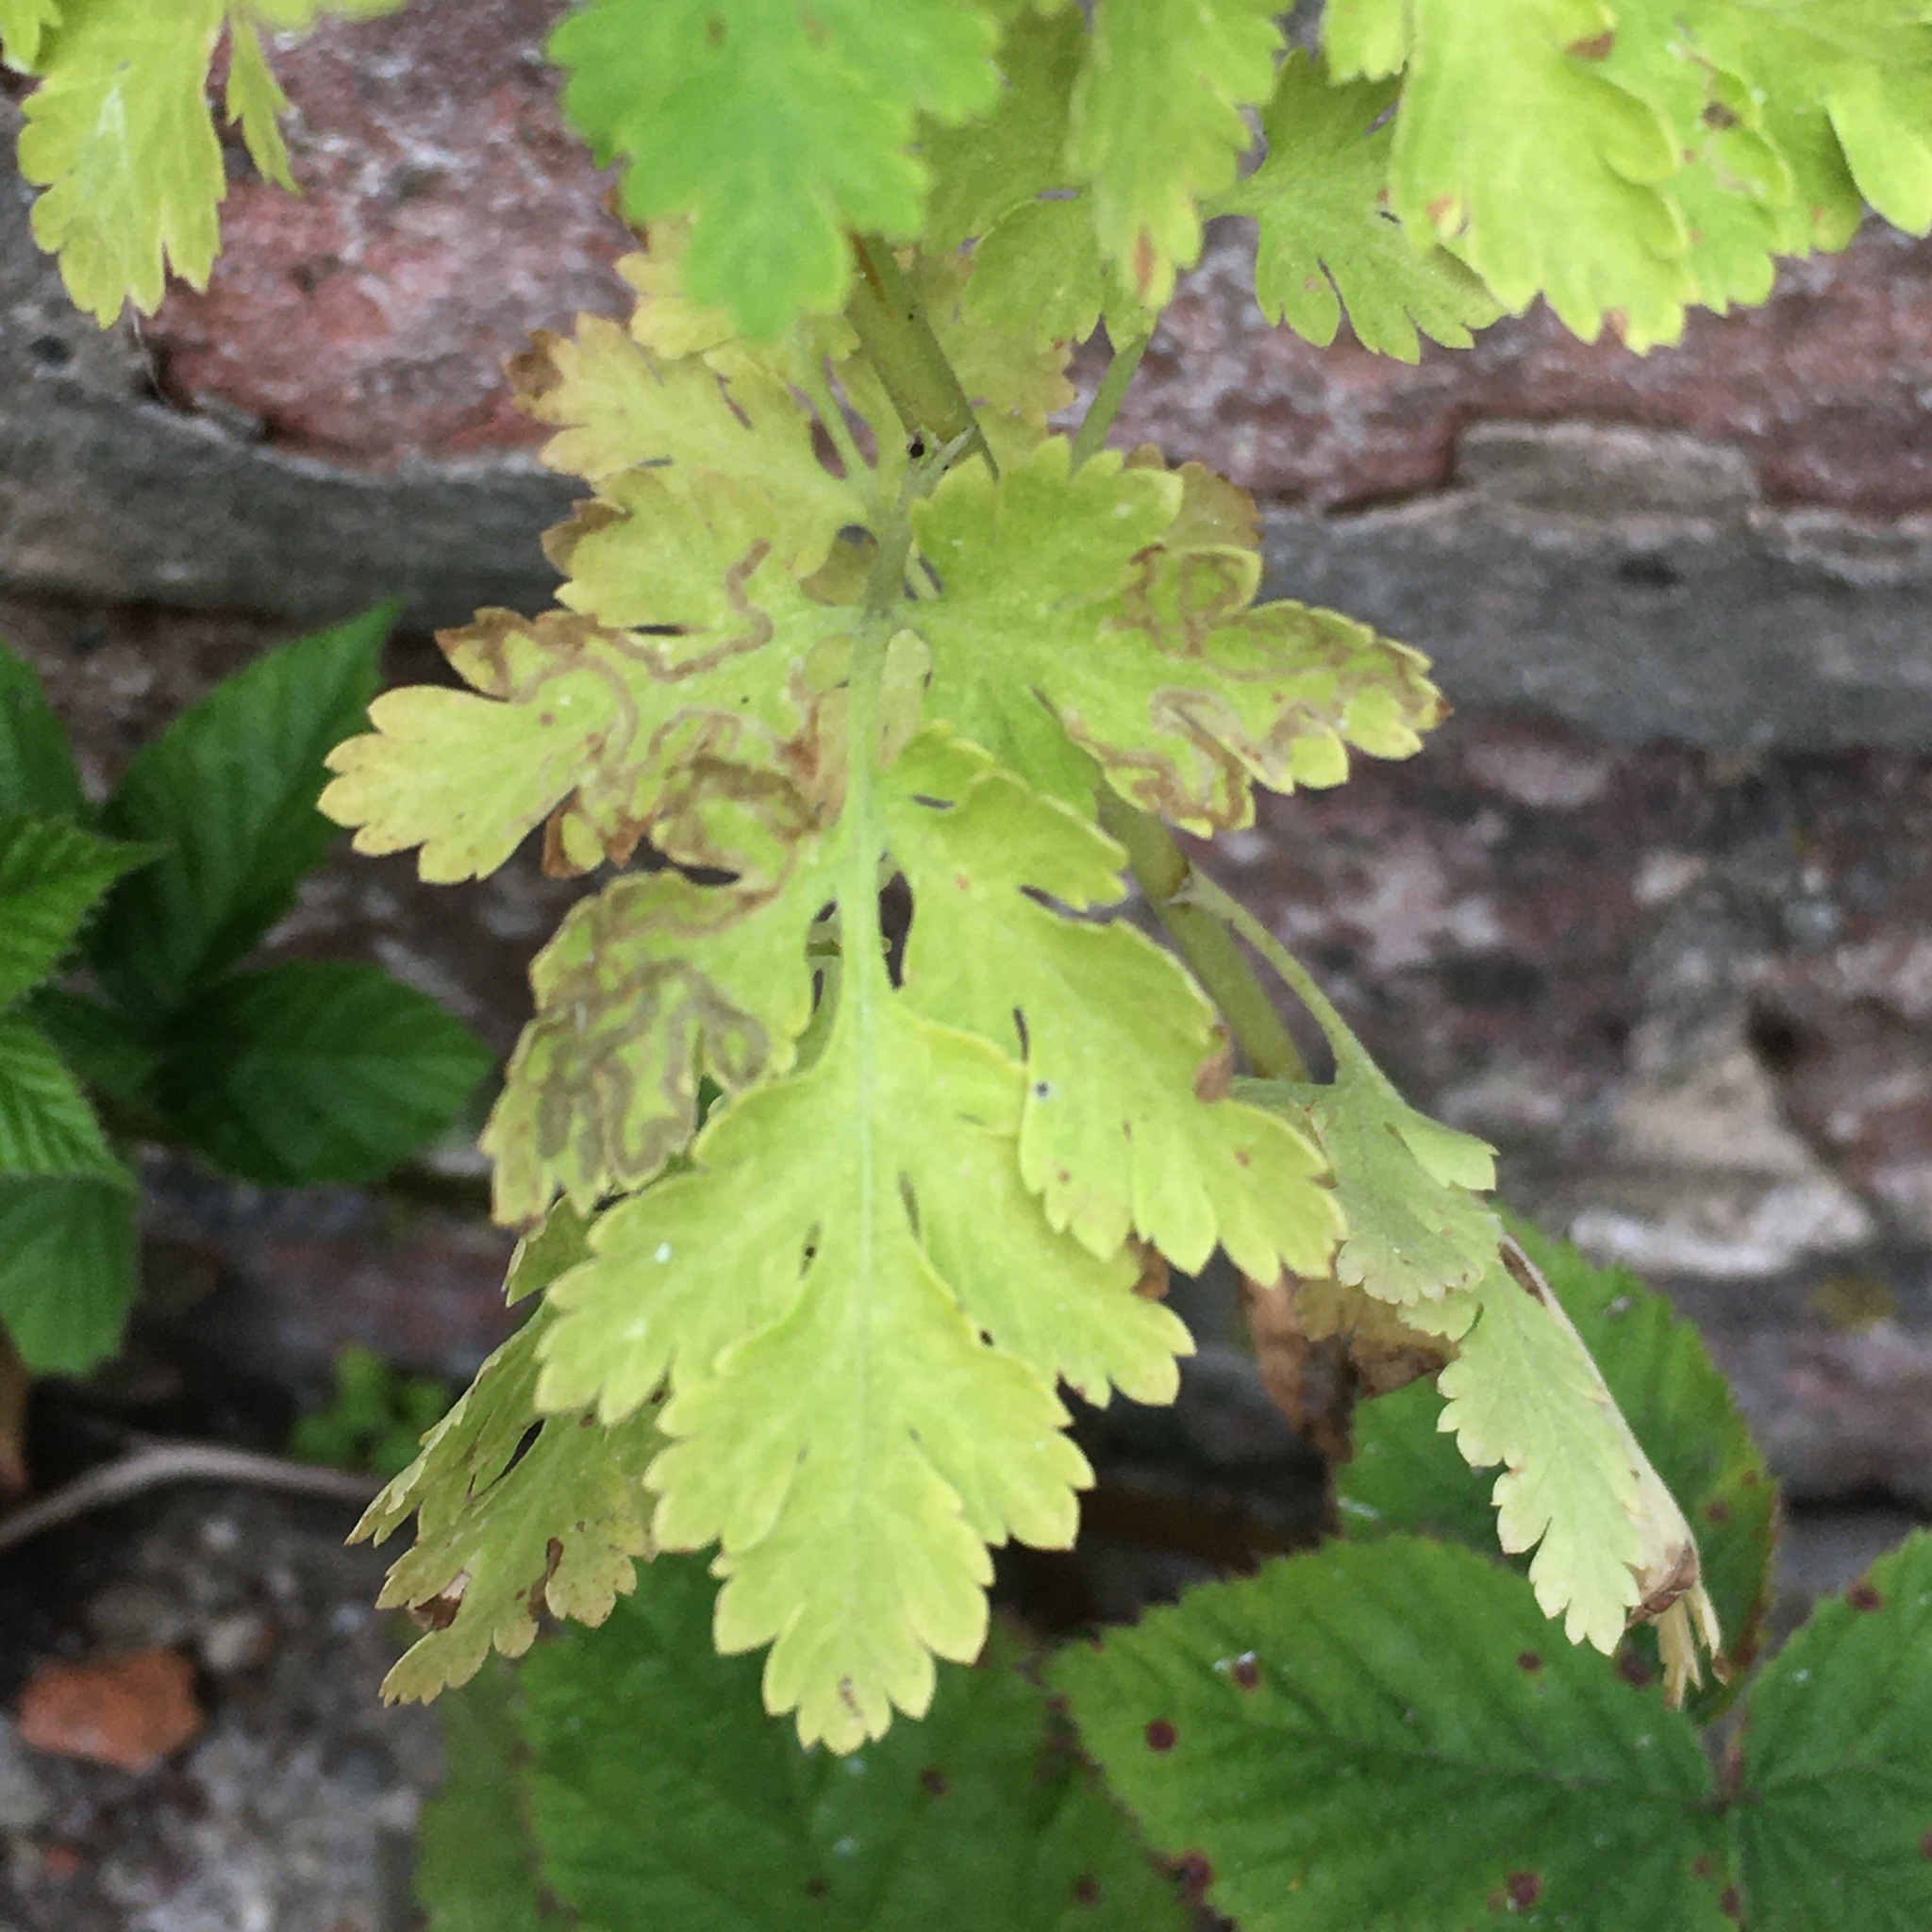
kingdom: Plantae
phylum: Tracheophyta
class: Magnoliopsida
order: Asterales
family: Asteraceae
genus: Tanacetum
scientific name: Tanacetum parthenium
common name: Feverfew
